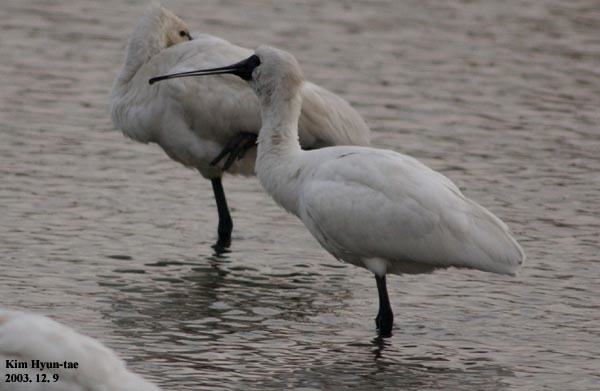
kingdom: Animalia
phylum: Chordata
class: Aves
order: Pelecaniformes
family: Threskiornithidae
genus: Platalea
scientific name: Platalea minor
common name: Black-faced spoonbill
